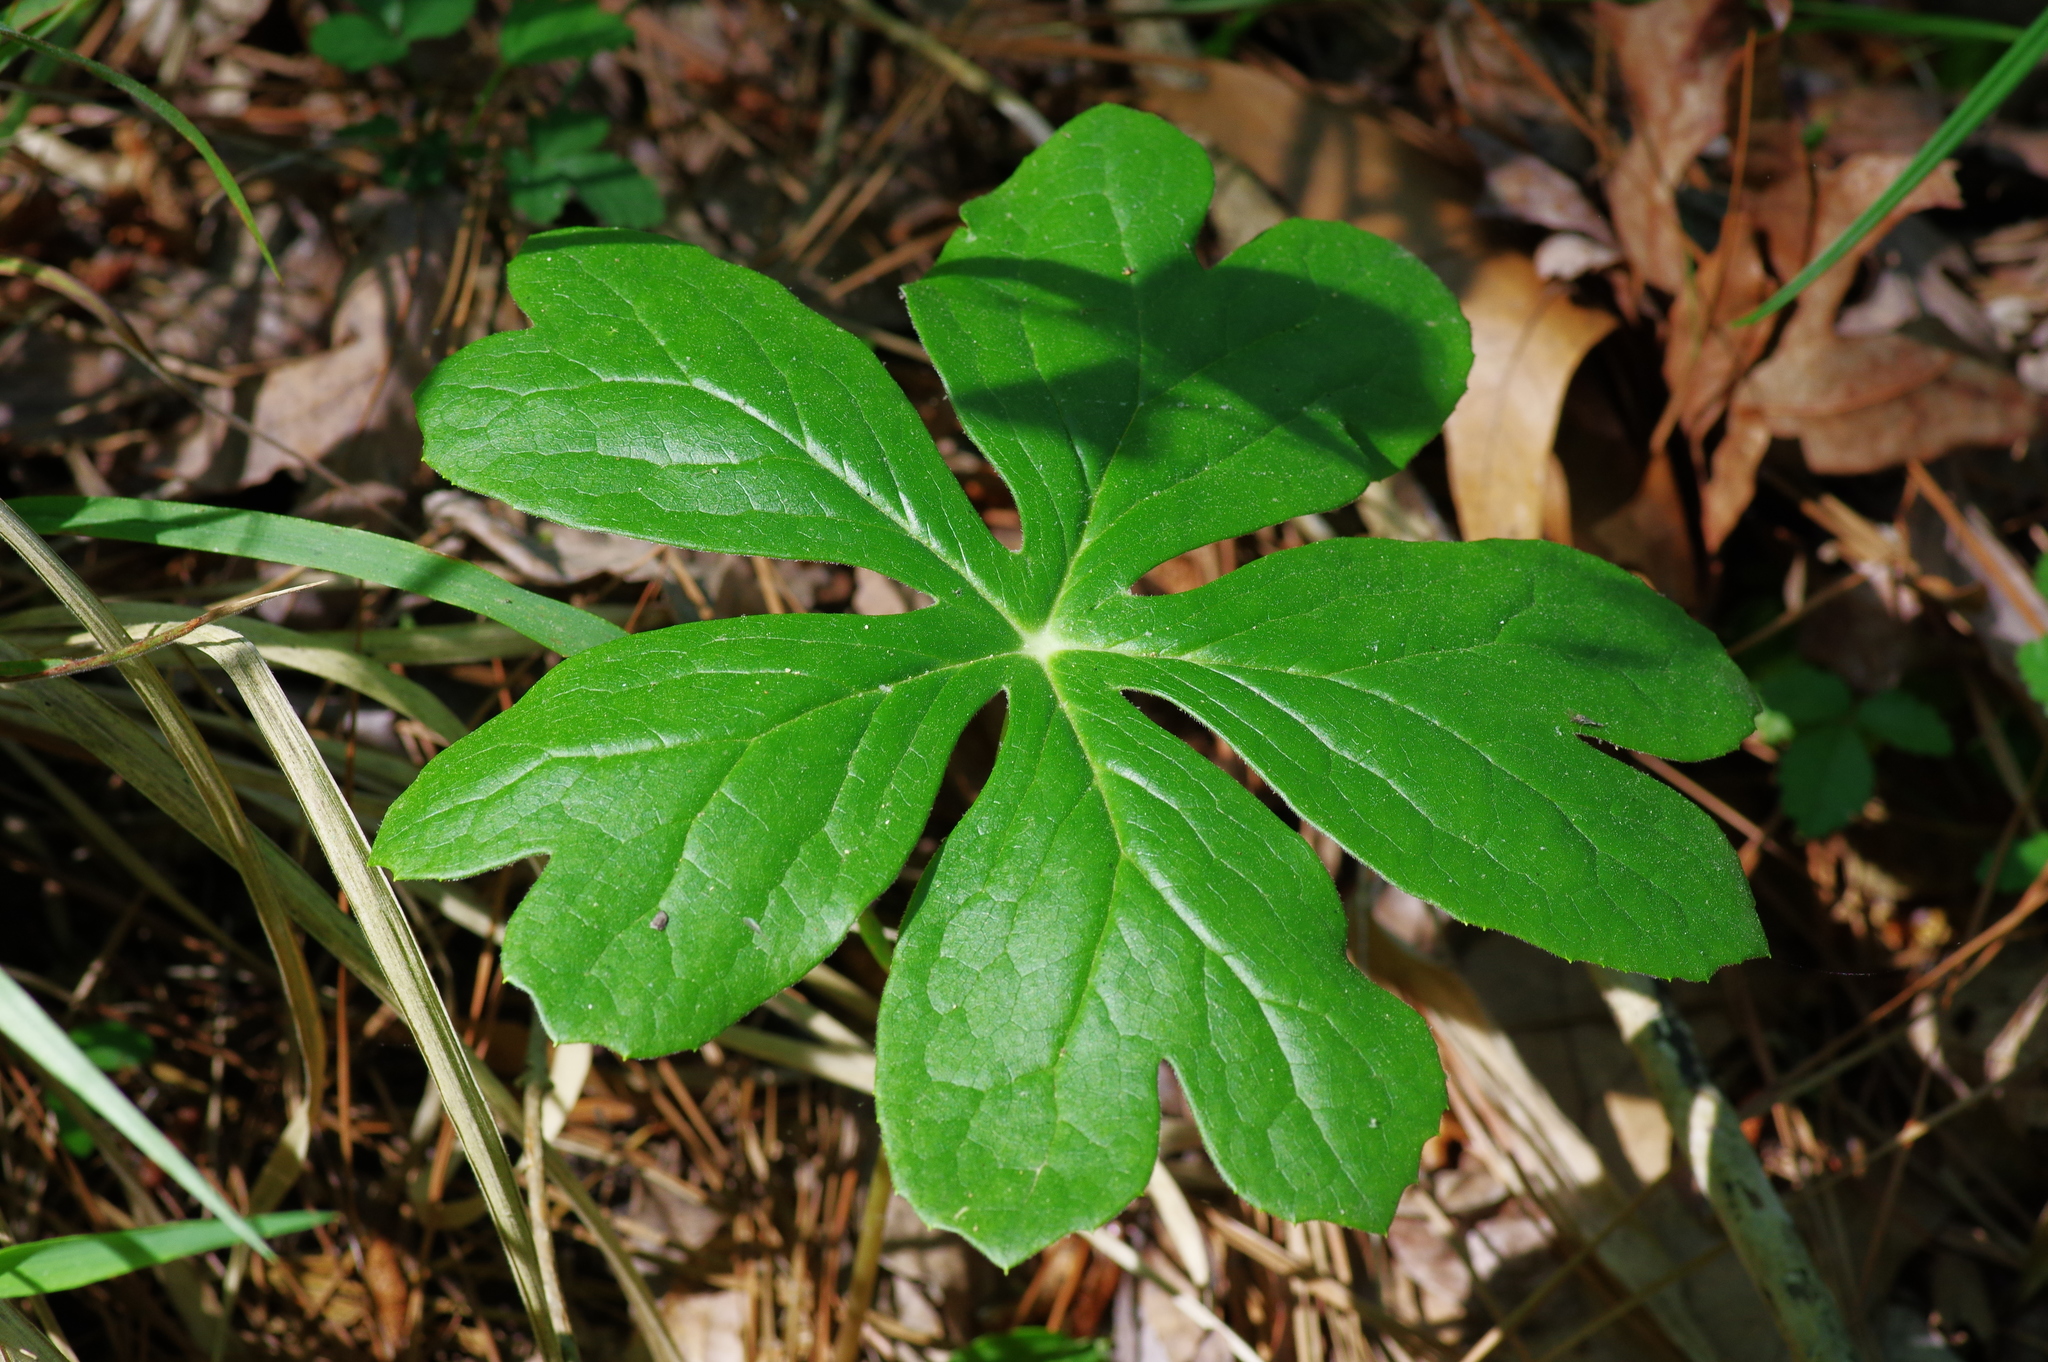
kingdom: Plantae
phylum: Tracheophyta
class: Magnoliopsida
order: Ranunculales
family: Berberidaceae
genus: Podophyllum
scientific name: Podophyllum peltatum
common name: Wild mandrake
